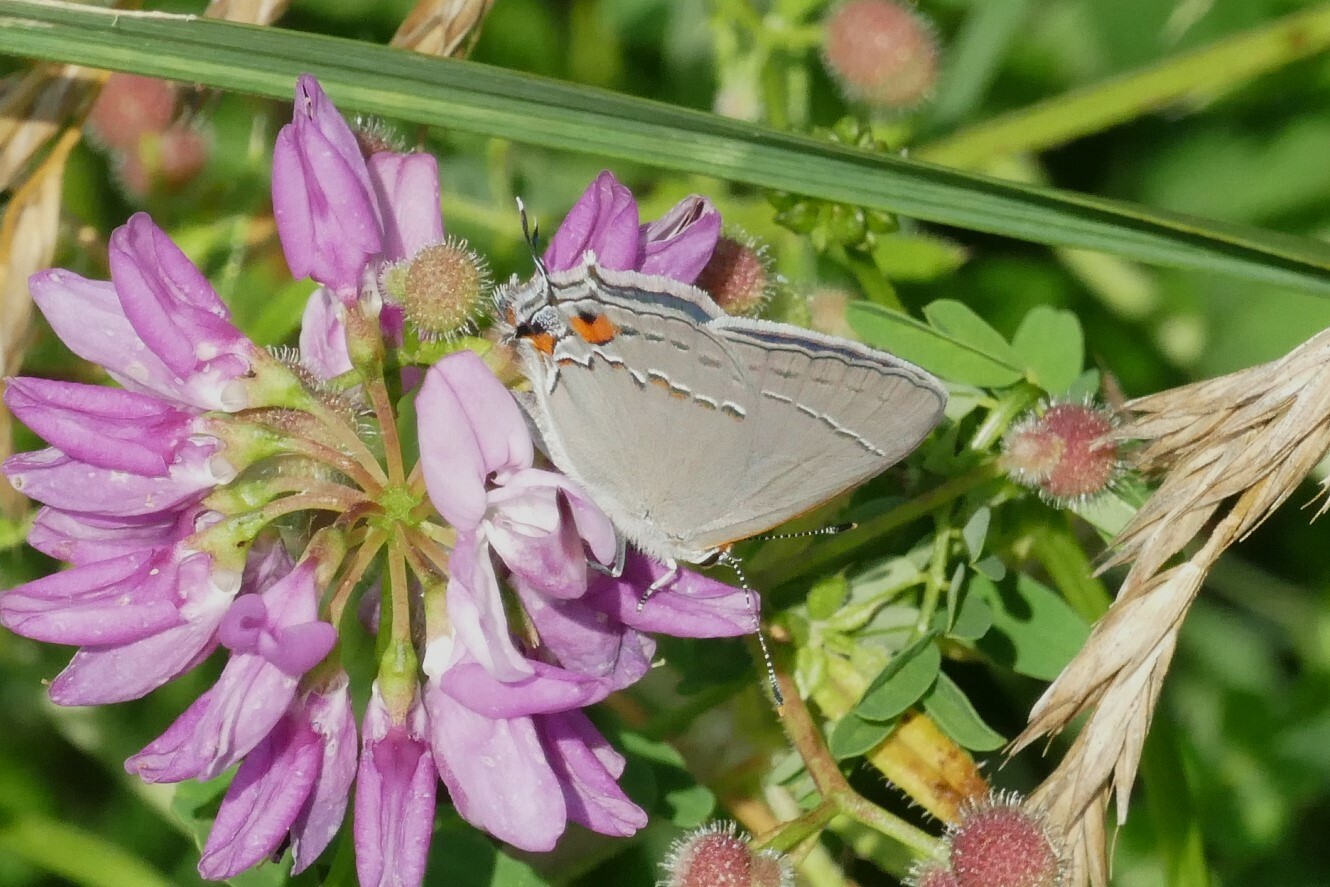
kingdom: Animalia
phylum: Arthropoda
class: Insecta
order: Lepidoptera
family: Lycaenidae
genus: Strymon
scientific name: Strymon melinus
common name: Gray hairstreak
